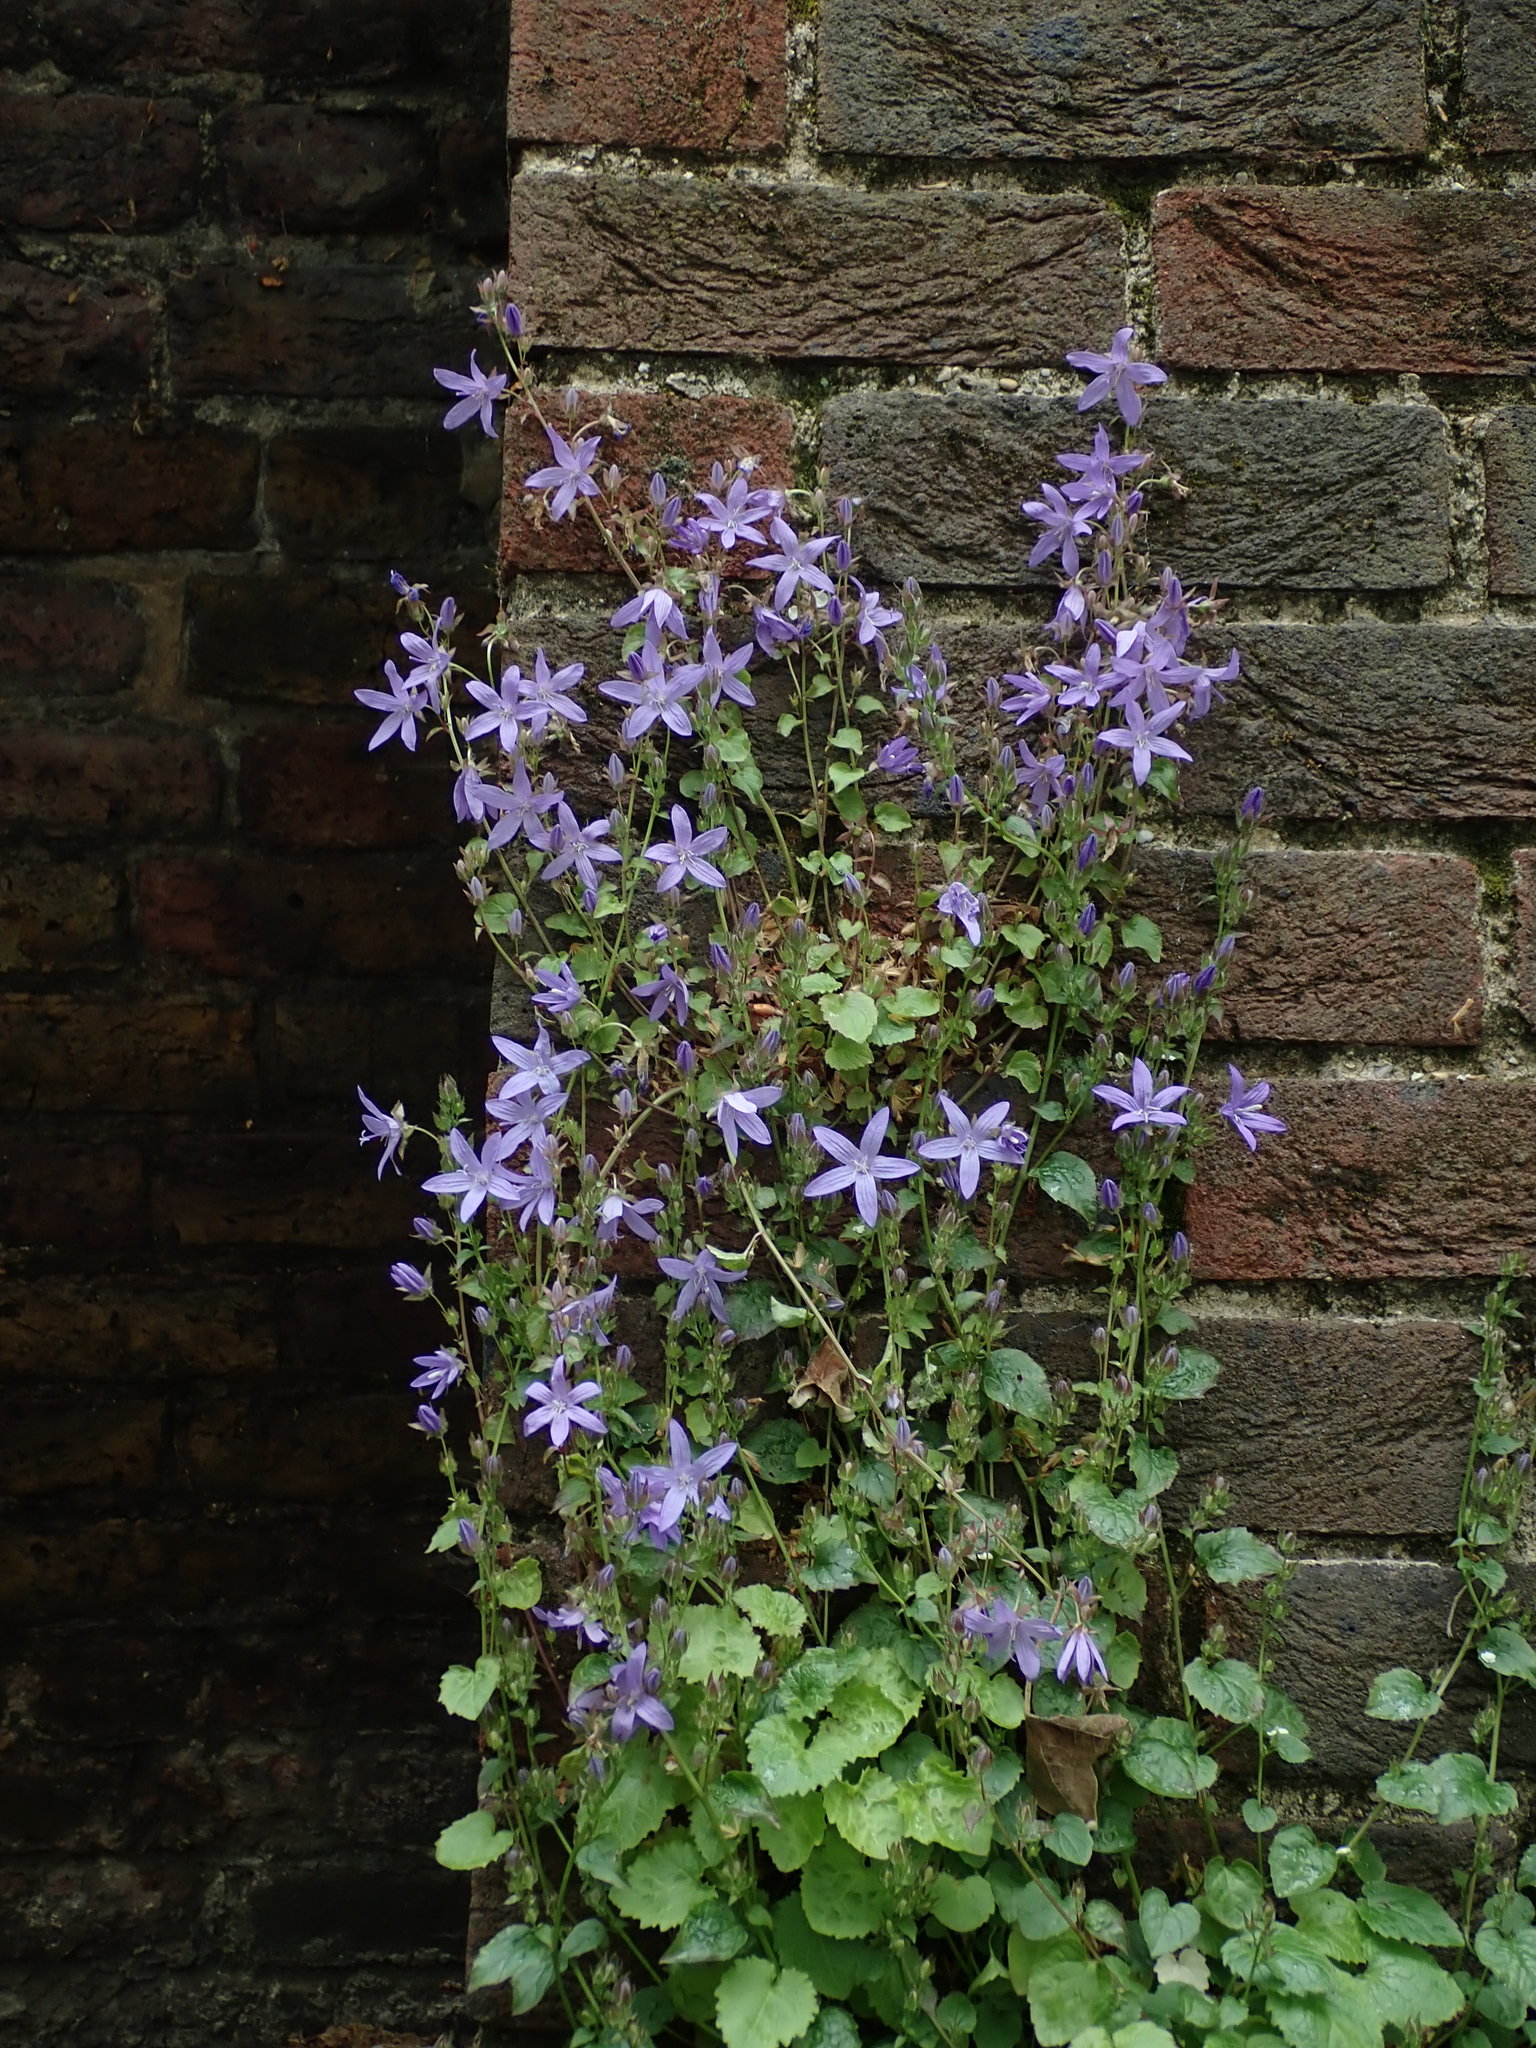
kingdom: Plantae
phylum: Tracheophyta
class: Magnoliopsida
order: Asterales
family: Campanulaceae
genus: Campanula
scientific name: Campanula poscharskyana
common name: Trailing bellflower
